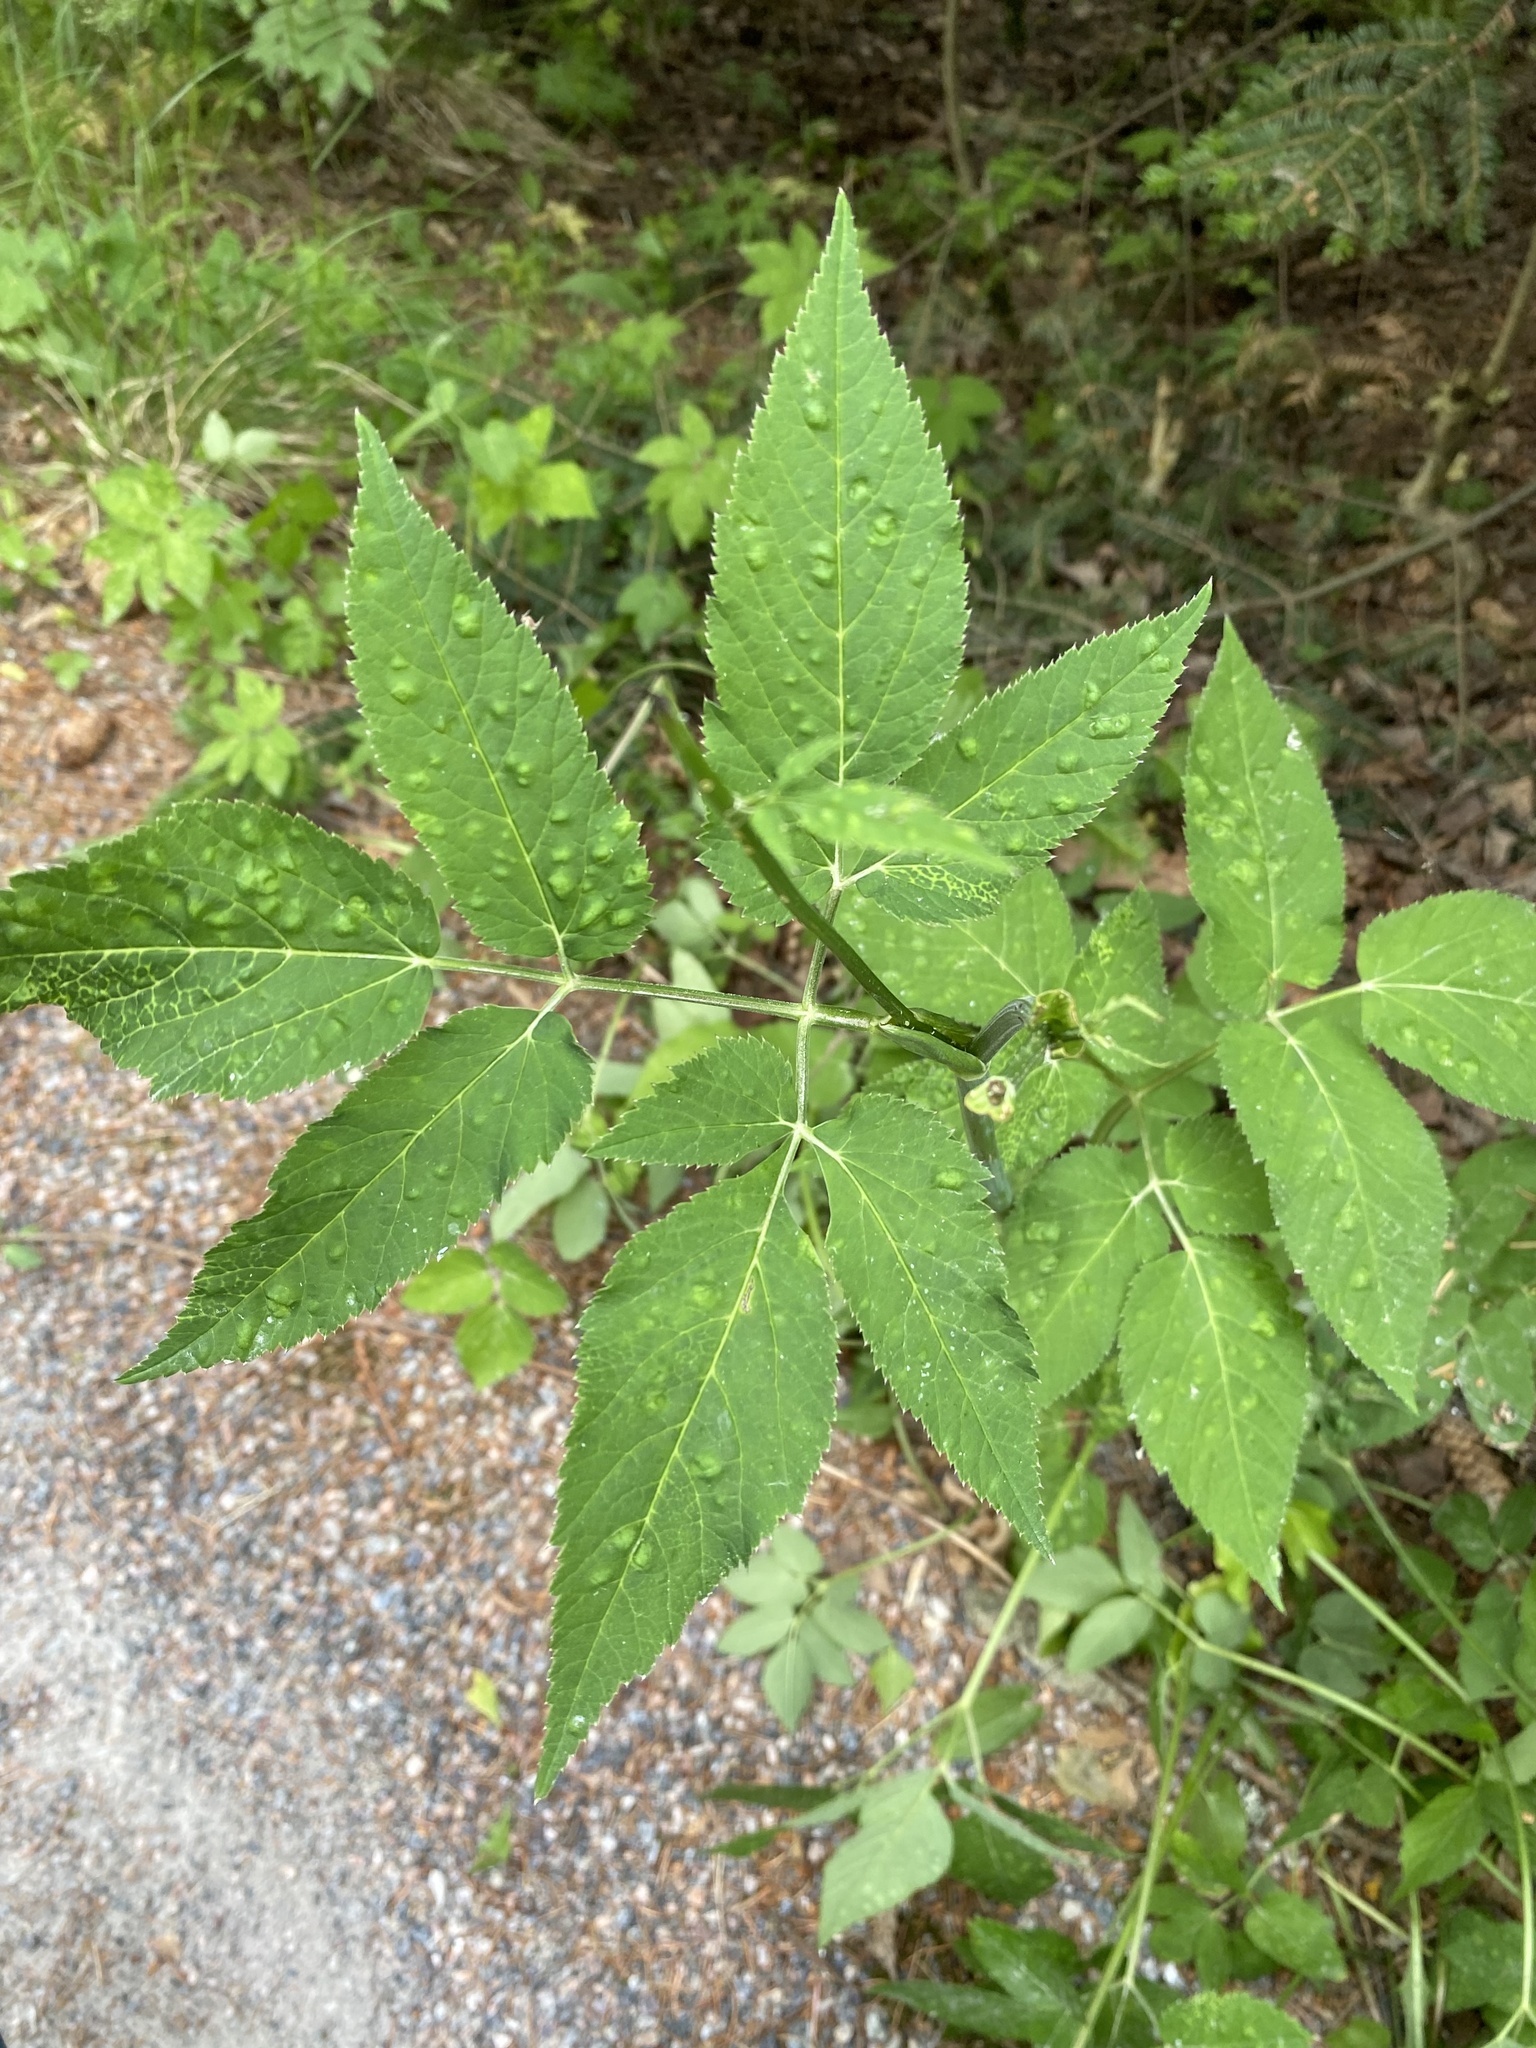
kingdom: Animalia
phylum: Arthropoda
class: Insecta
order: Hemiptera
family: Triozidae
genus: Trioza
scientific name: Trioza flavipennis
